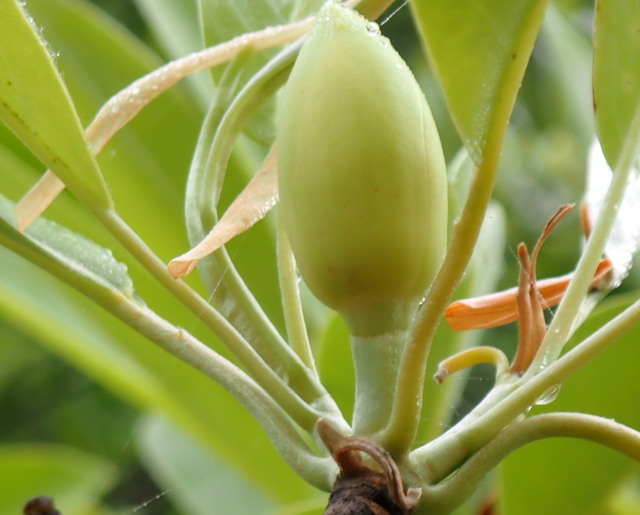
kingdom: Plantae
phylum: Tracheophyta
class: Magnoliopsida
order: Magnoliales
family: Magnoliaceae
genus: Magnolia
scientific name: Magnolia virginiana
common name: Swamp bay
